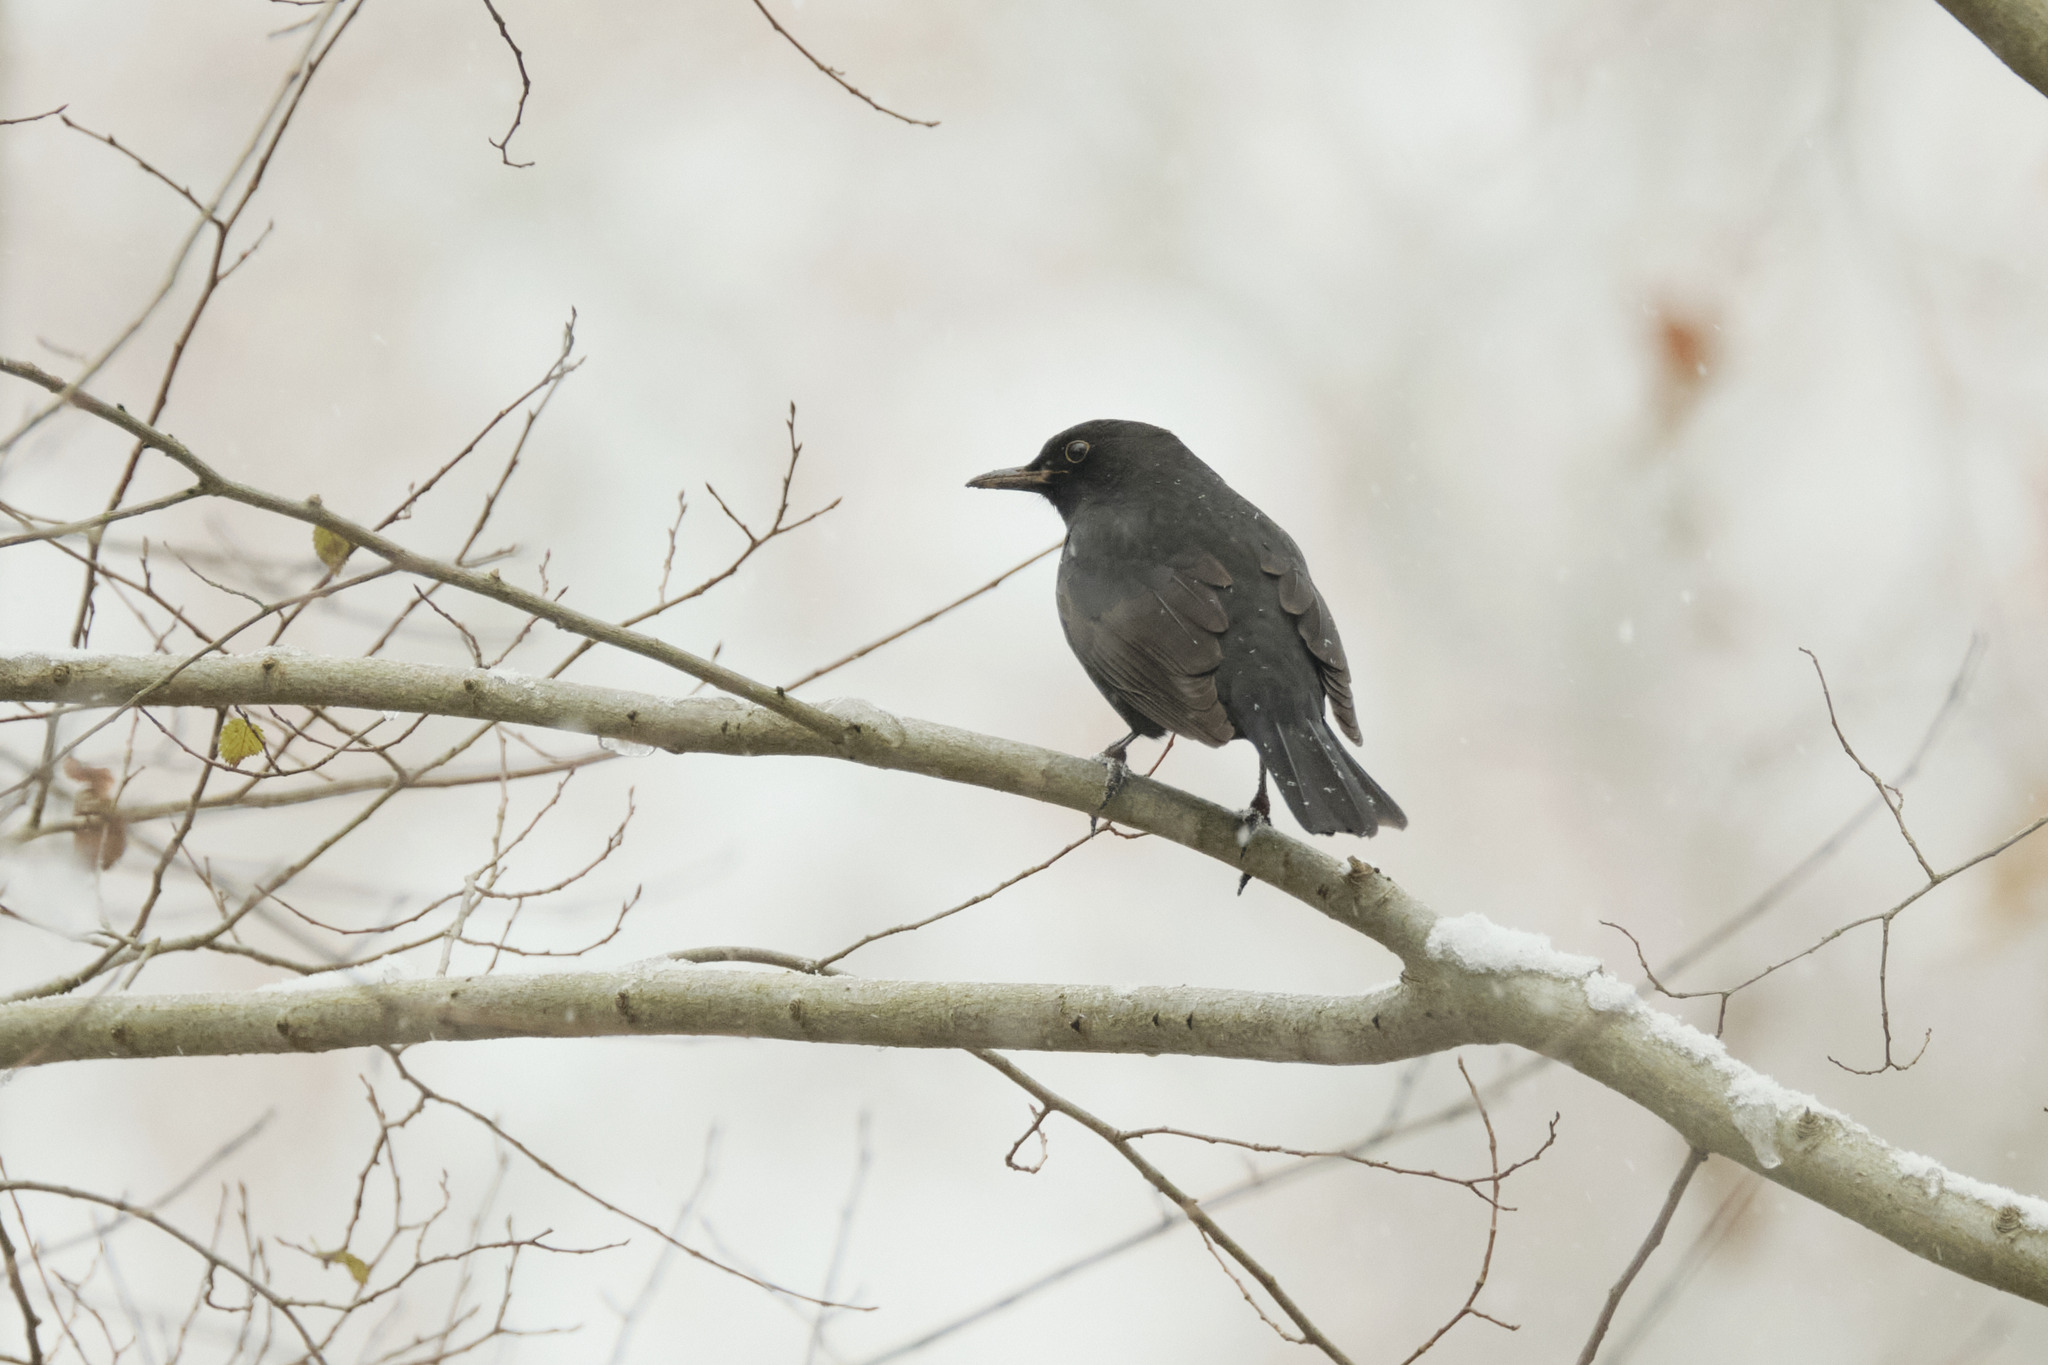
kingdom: Animalia
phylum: Chordata
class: Aves
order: Passeriformes
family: Turdidae
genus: Turdus
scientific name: Turdus merula
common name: Common blackbird
